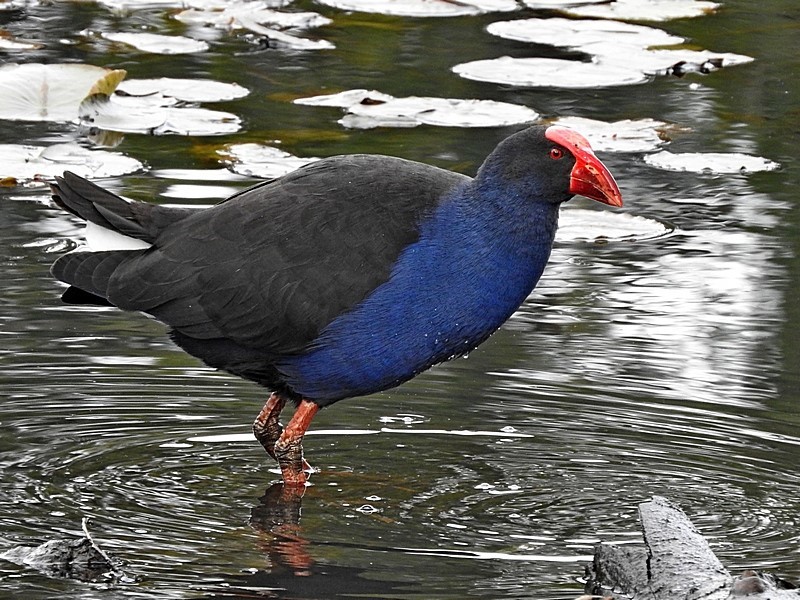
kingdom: Animalia
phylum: Chordata
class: Aves
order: Gruiformes
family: Rallidae
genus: Porphyrio
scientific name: Porphyrio melanotus
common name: Australasian swamphen
